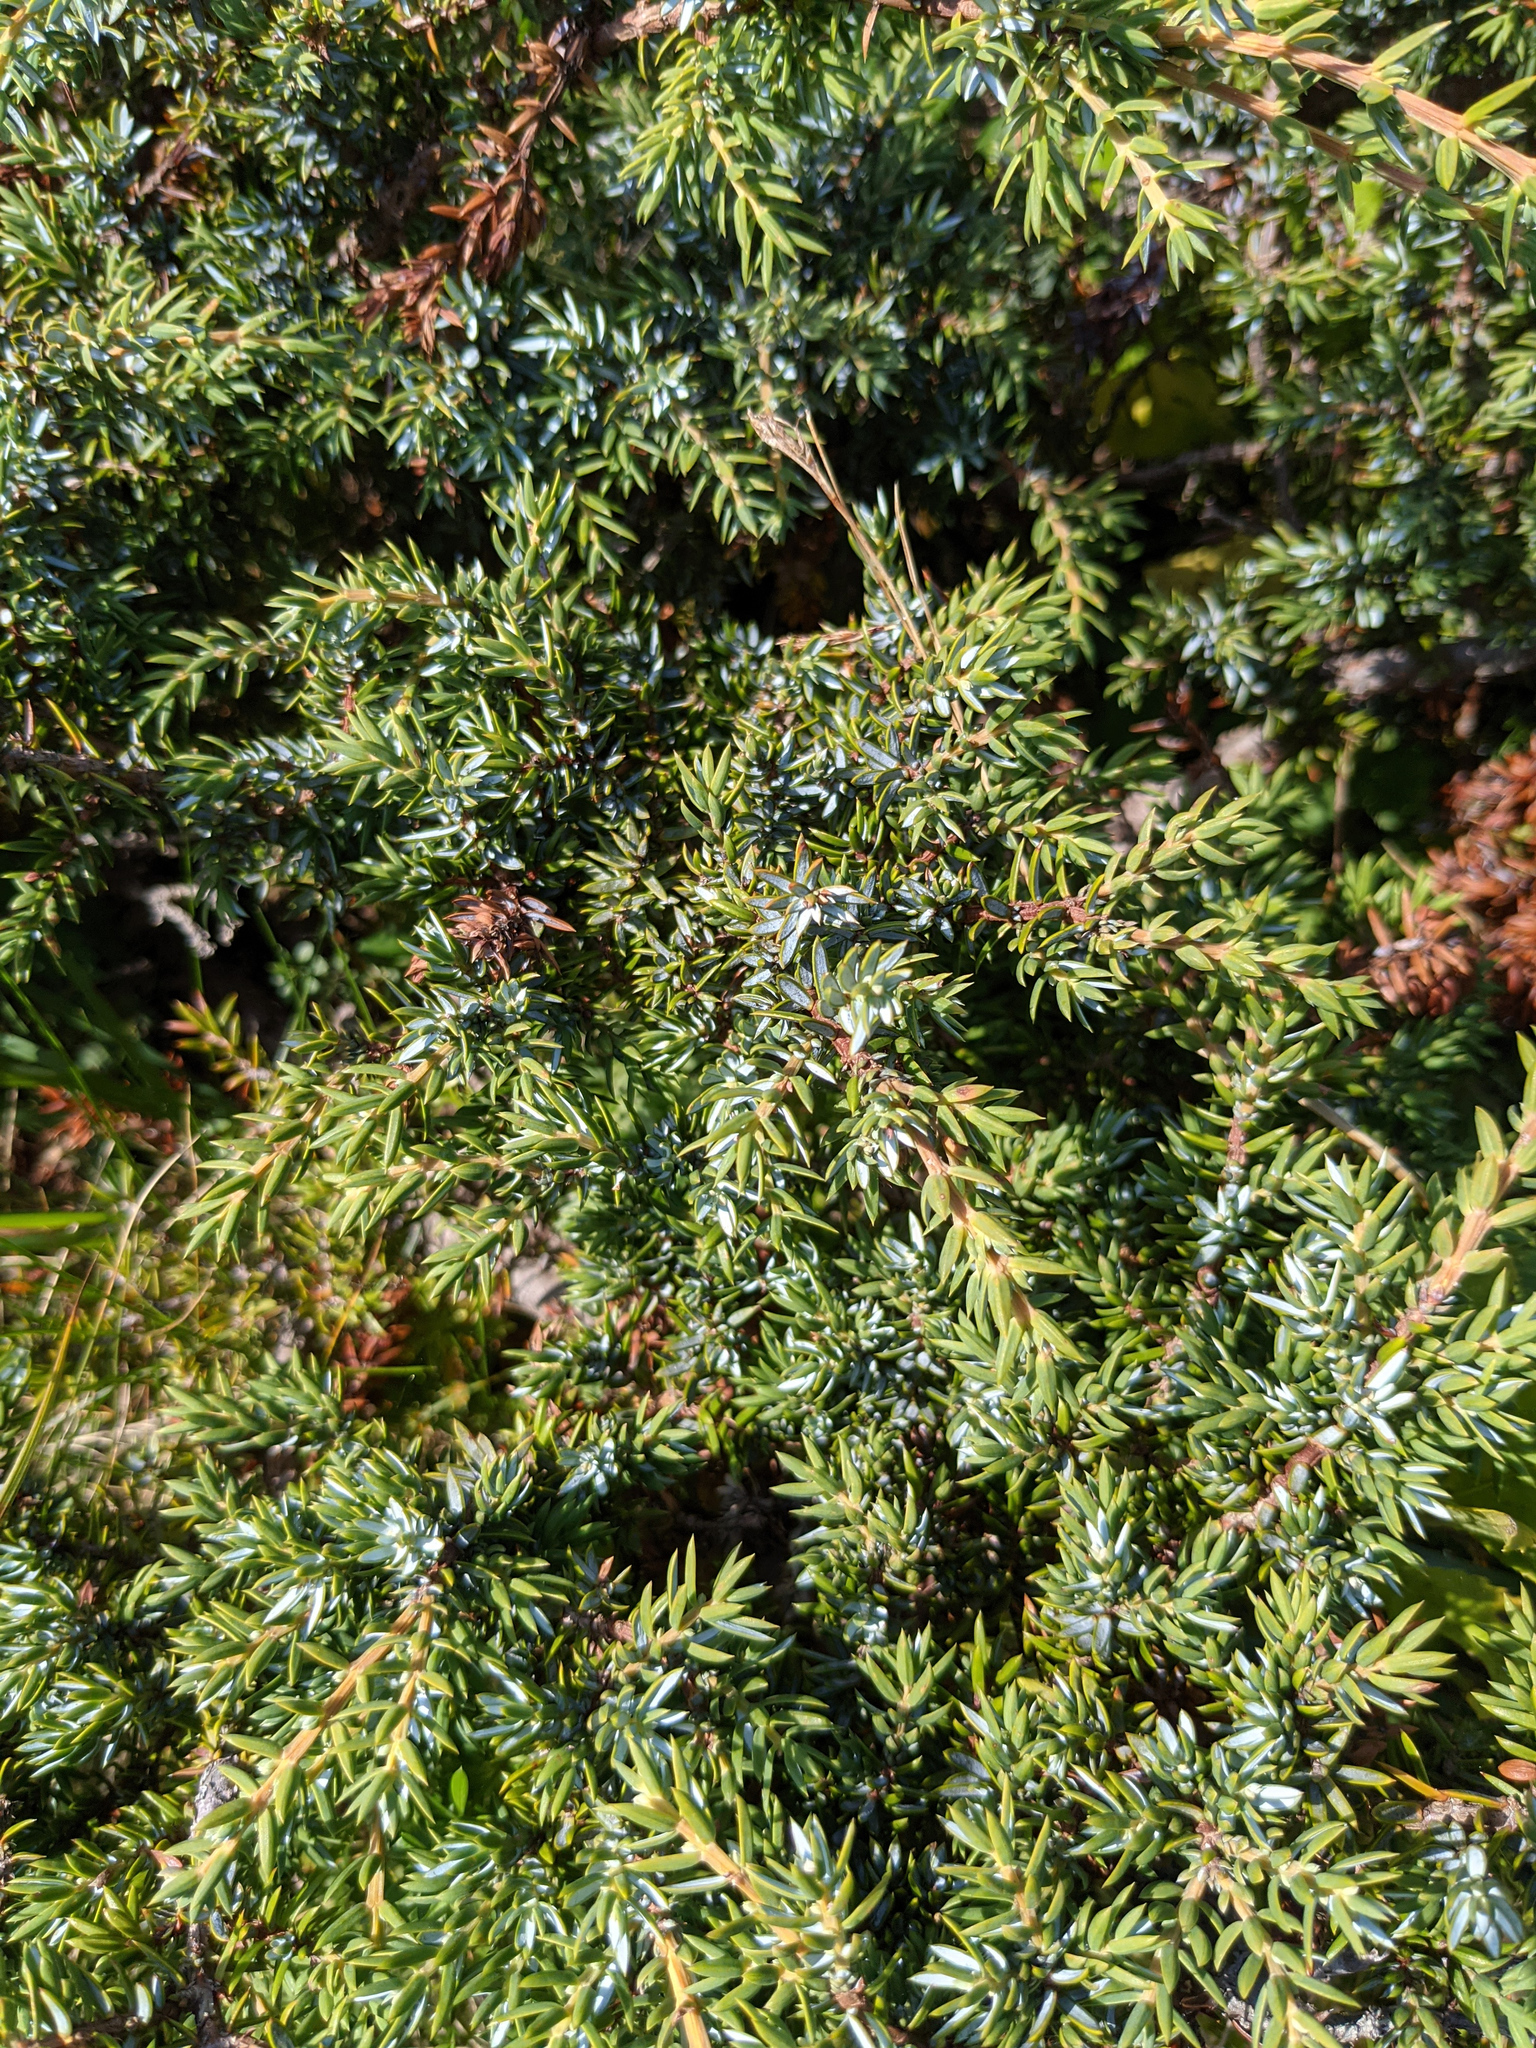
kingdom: Plantae
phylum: Tracheophyta
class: Pinopsida
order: Pinales
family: Cupressaceae
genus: Juniperus
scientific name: Juniperus communis
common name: Common juniper
